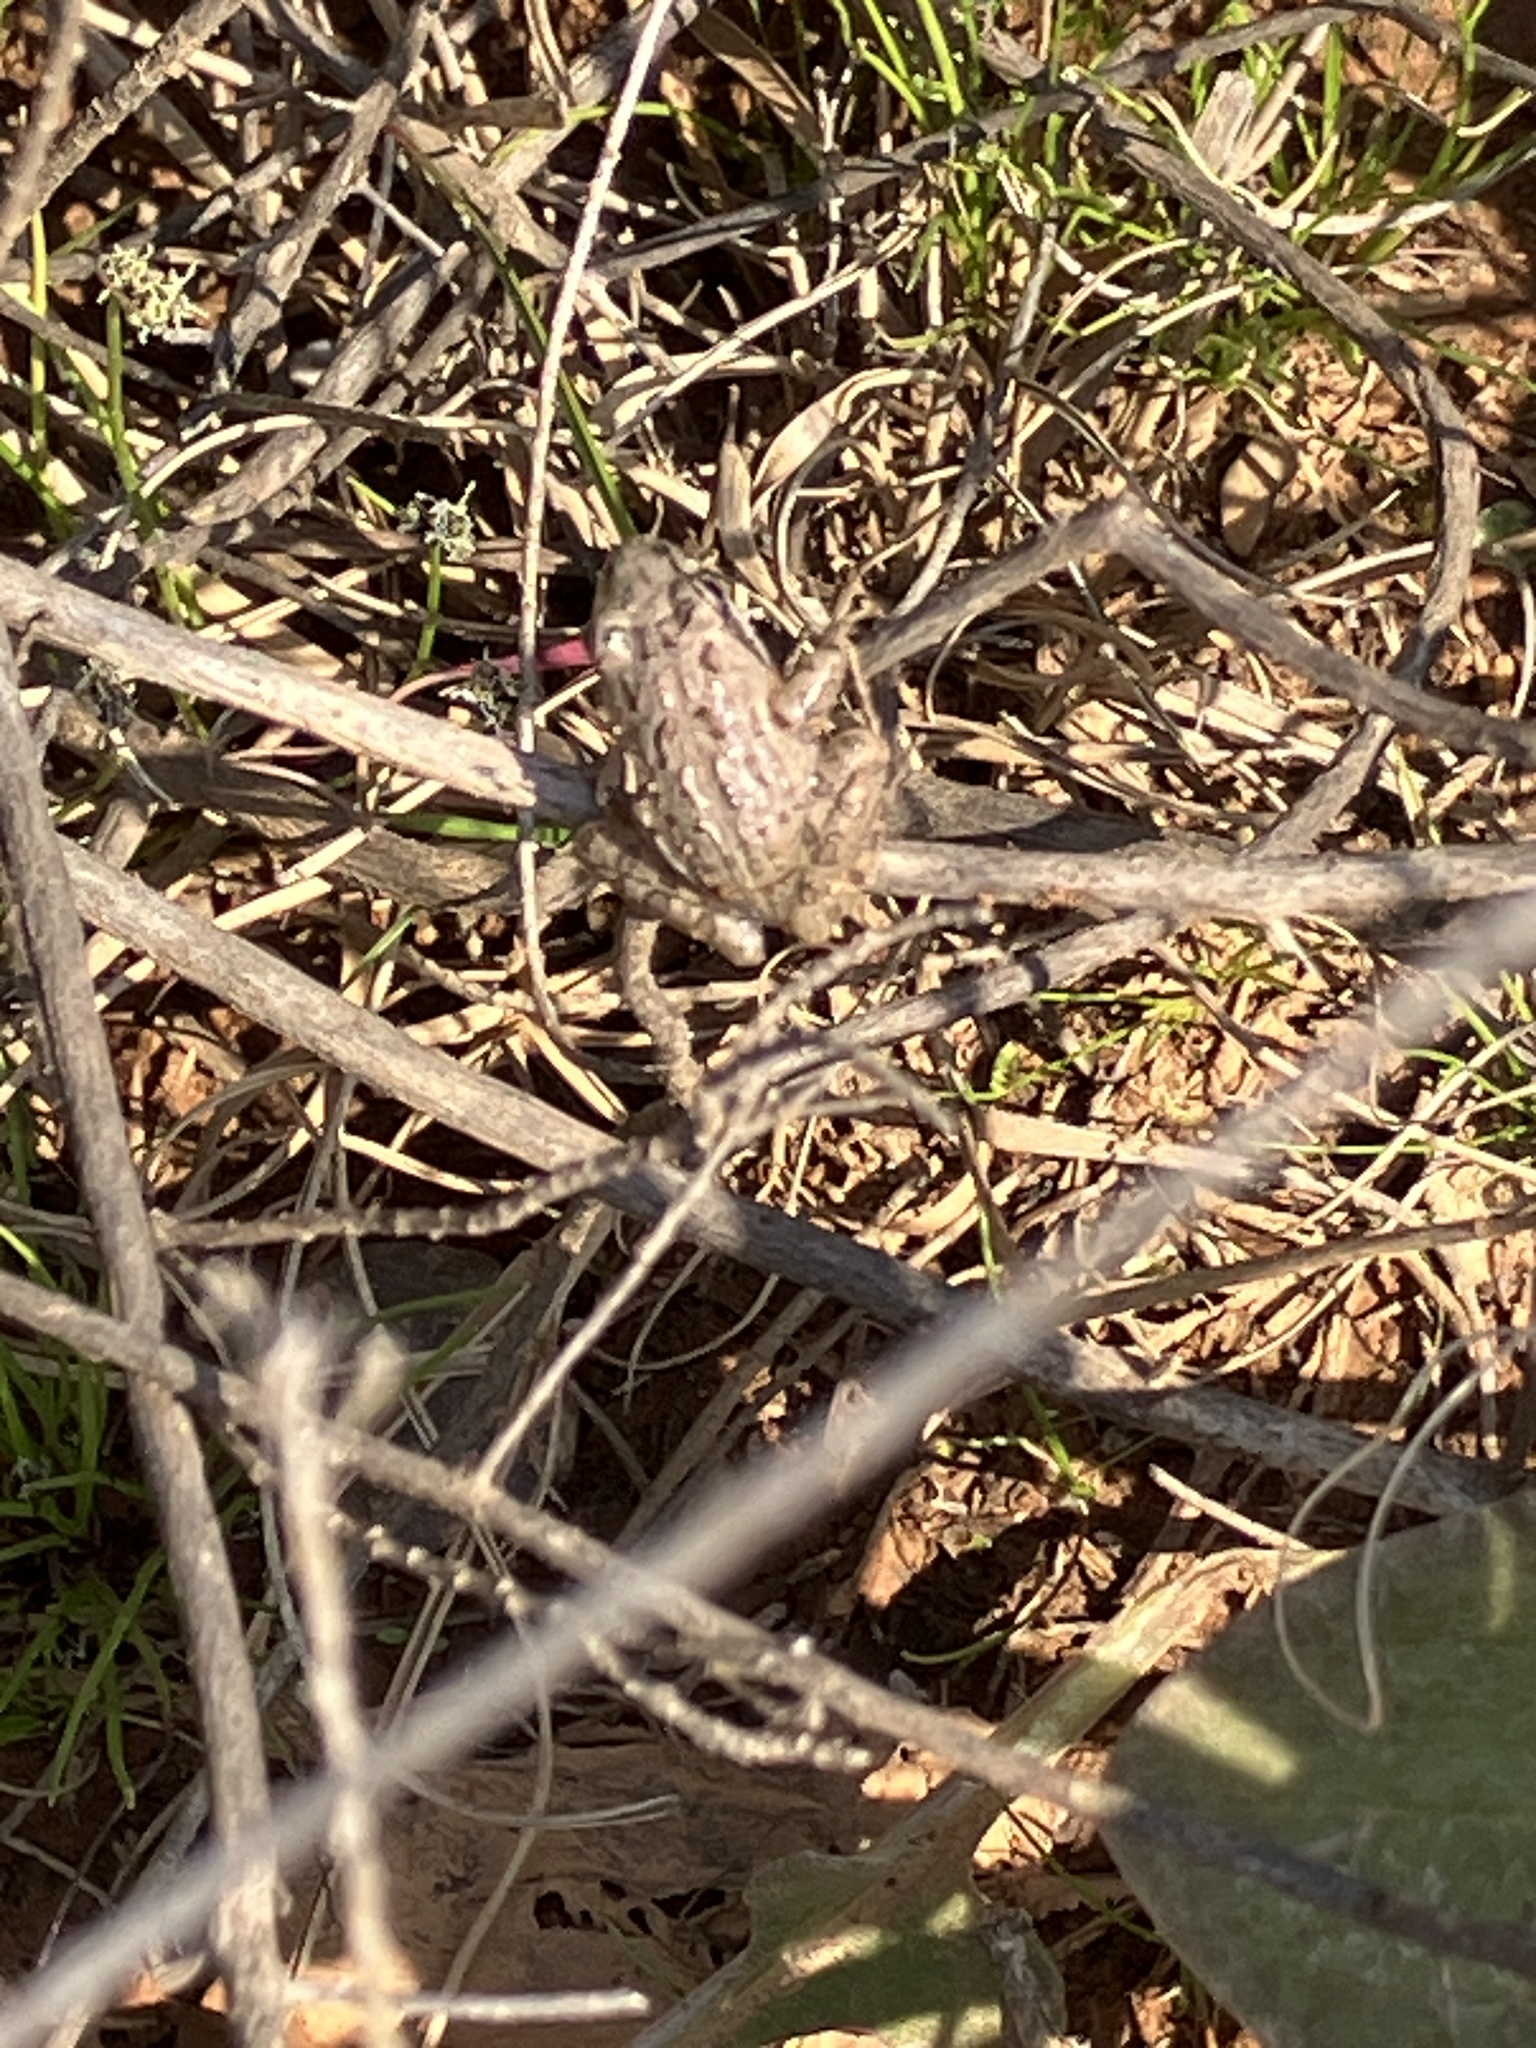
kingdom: Animalia
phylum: Chordata
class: Amphibia
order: Anura
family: Pyxicephalidae
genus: Strongylopus
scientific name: Strongylopus grayii
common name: Gray's stream frog
